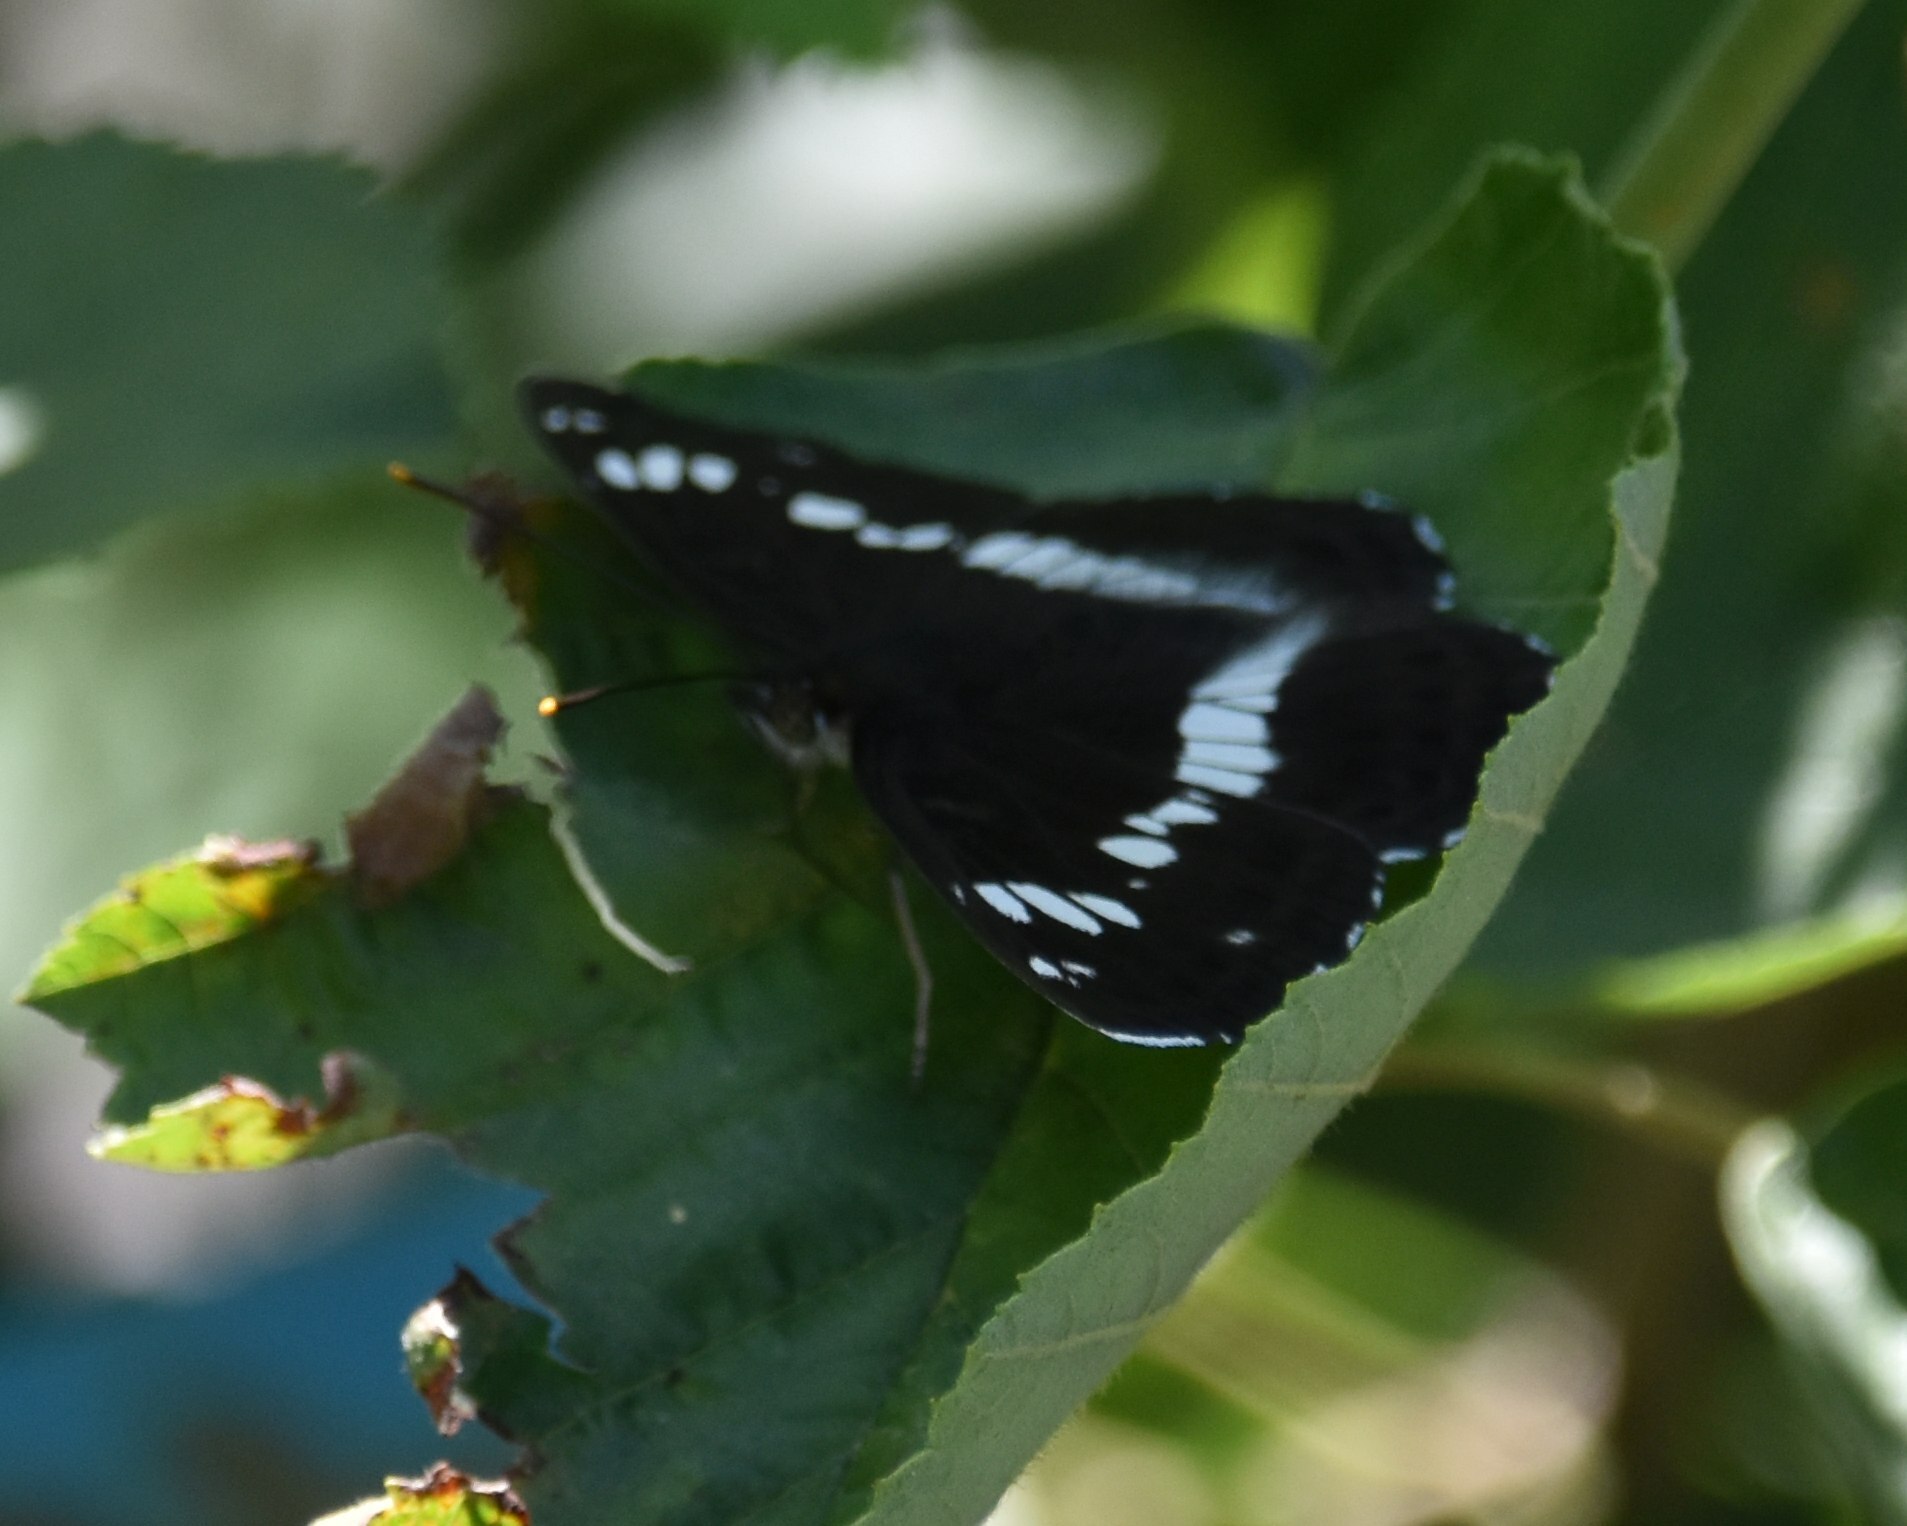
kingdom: Animalia
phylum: Arthropoda
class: Insecta
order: Lepidoptera
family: Nymphalidae
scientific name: Nymphalidae
